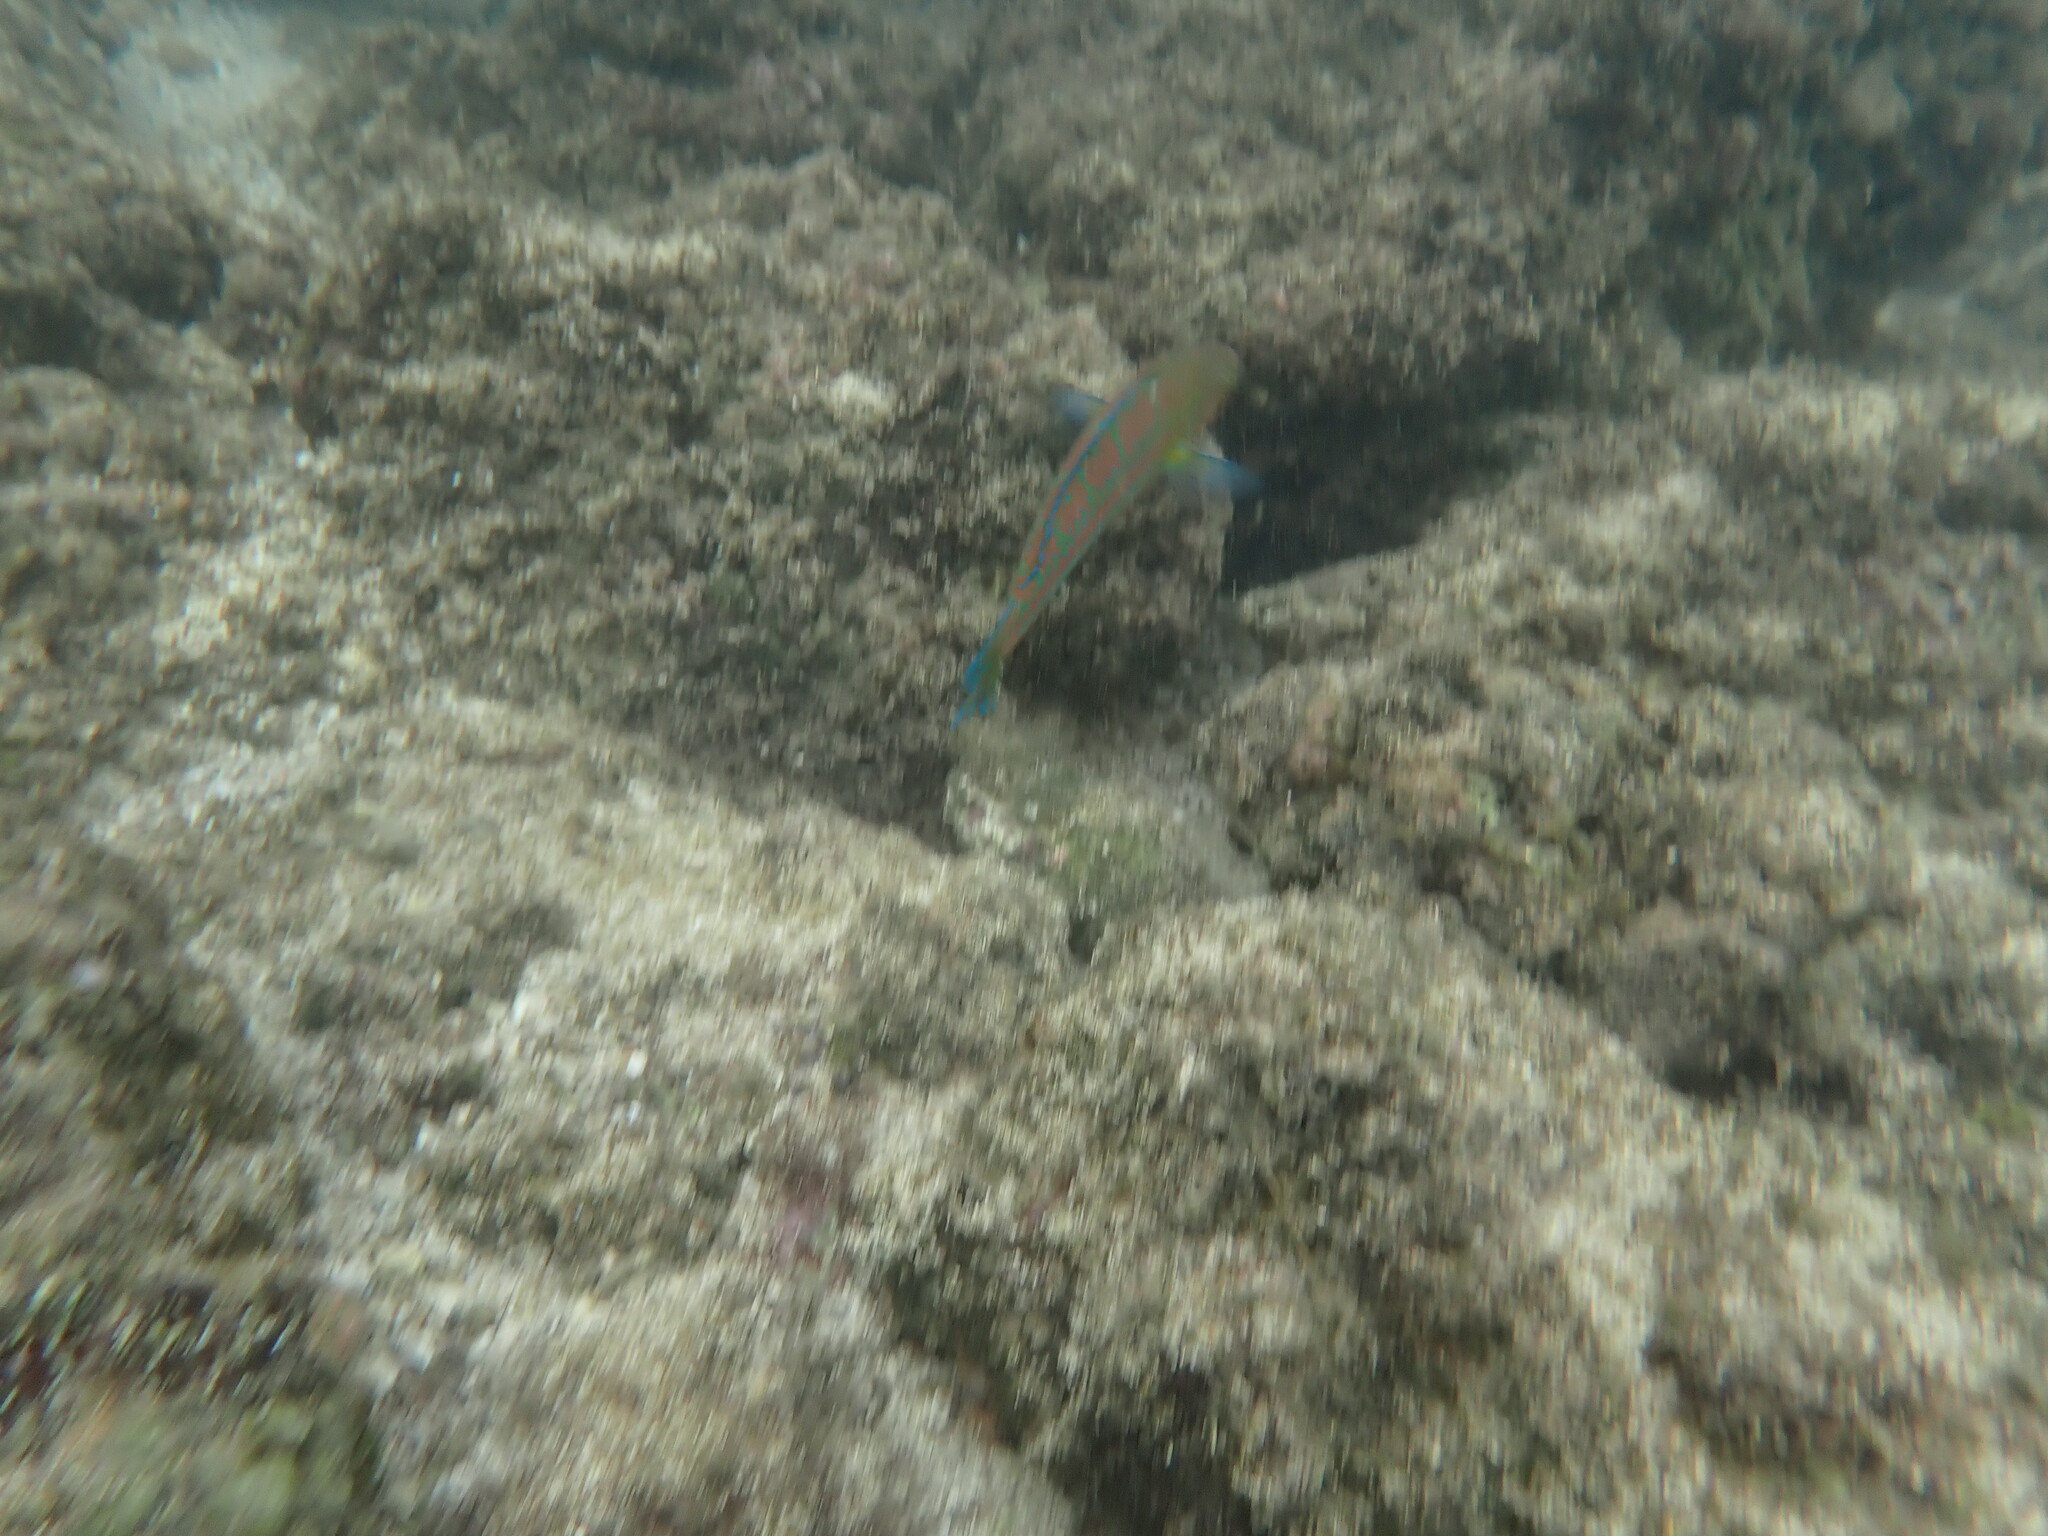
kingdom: Animalia
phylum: Chordata
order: Perciformes
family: Labridae
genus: Thalassoma
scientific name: Thalassoma trilobatum
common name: Christmas wrasse
